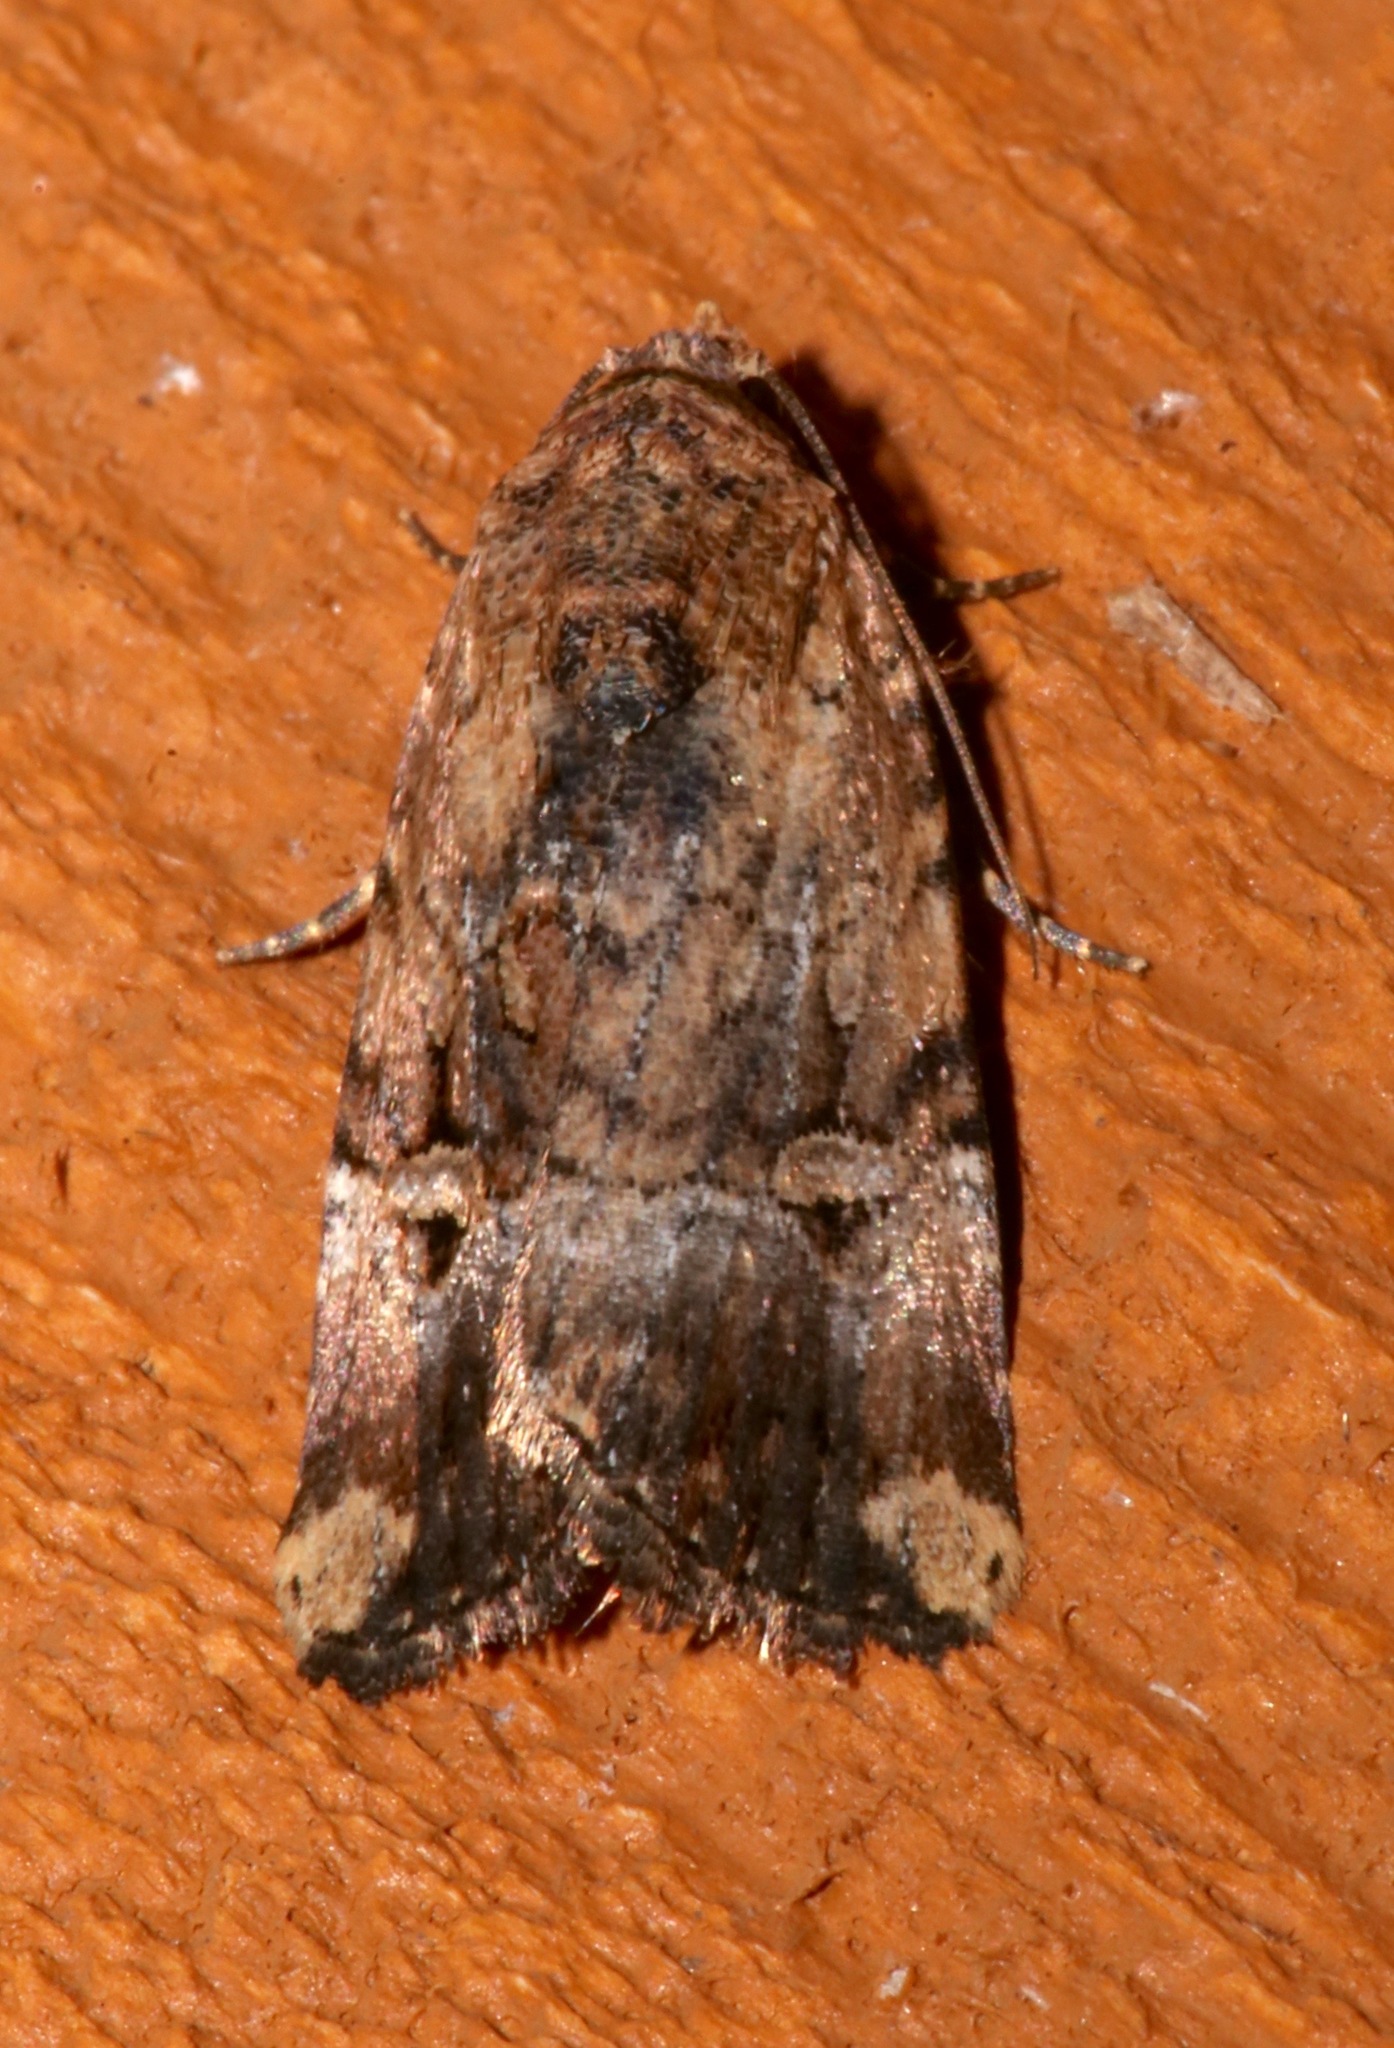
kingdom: Animalia
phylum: Arthropoda
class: Insecta
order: Lepidoptera
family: Noctuidae
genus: Elaphria
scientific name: Elaphria chalcedonia
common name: Chalcedony midget
